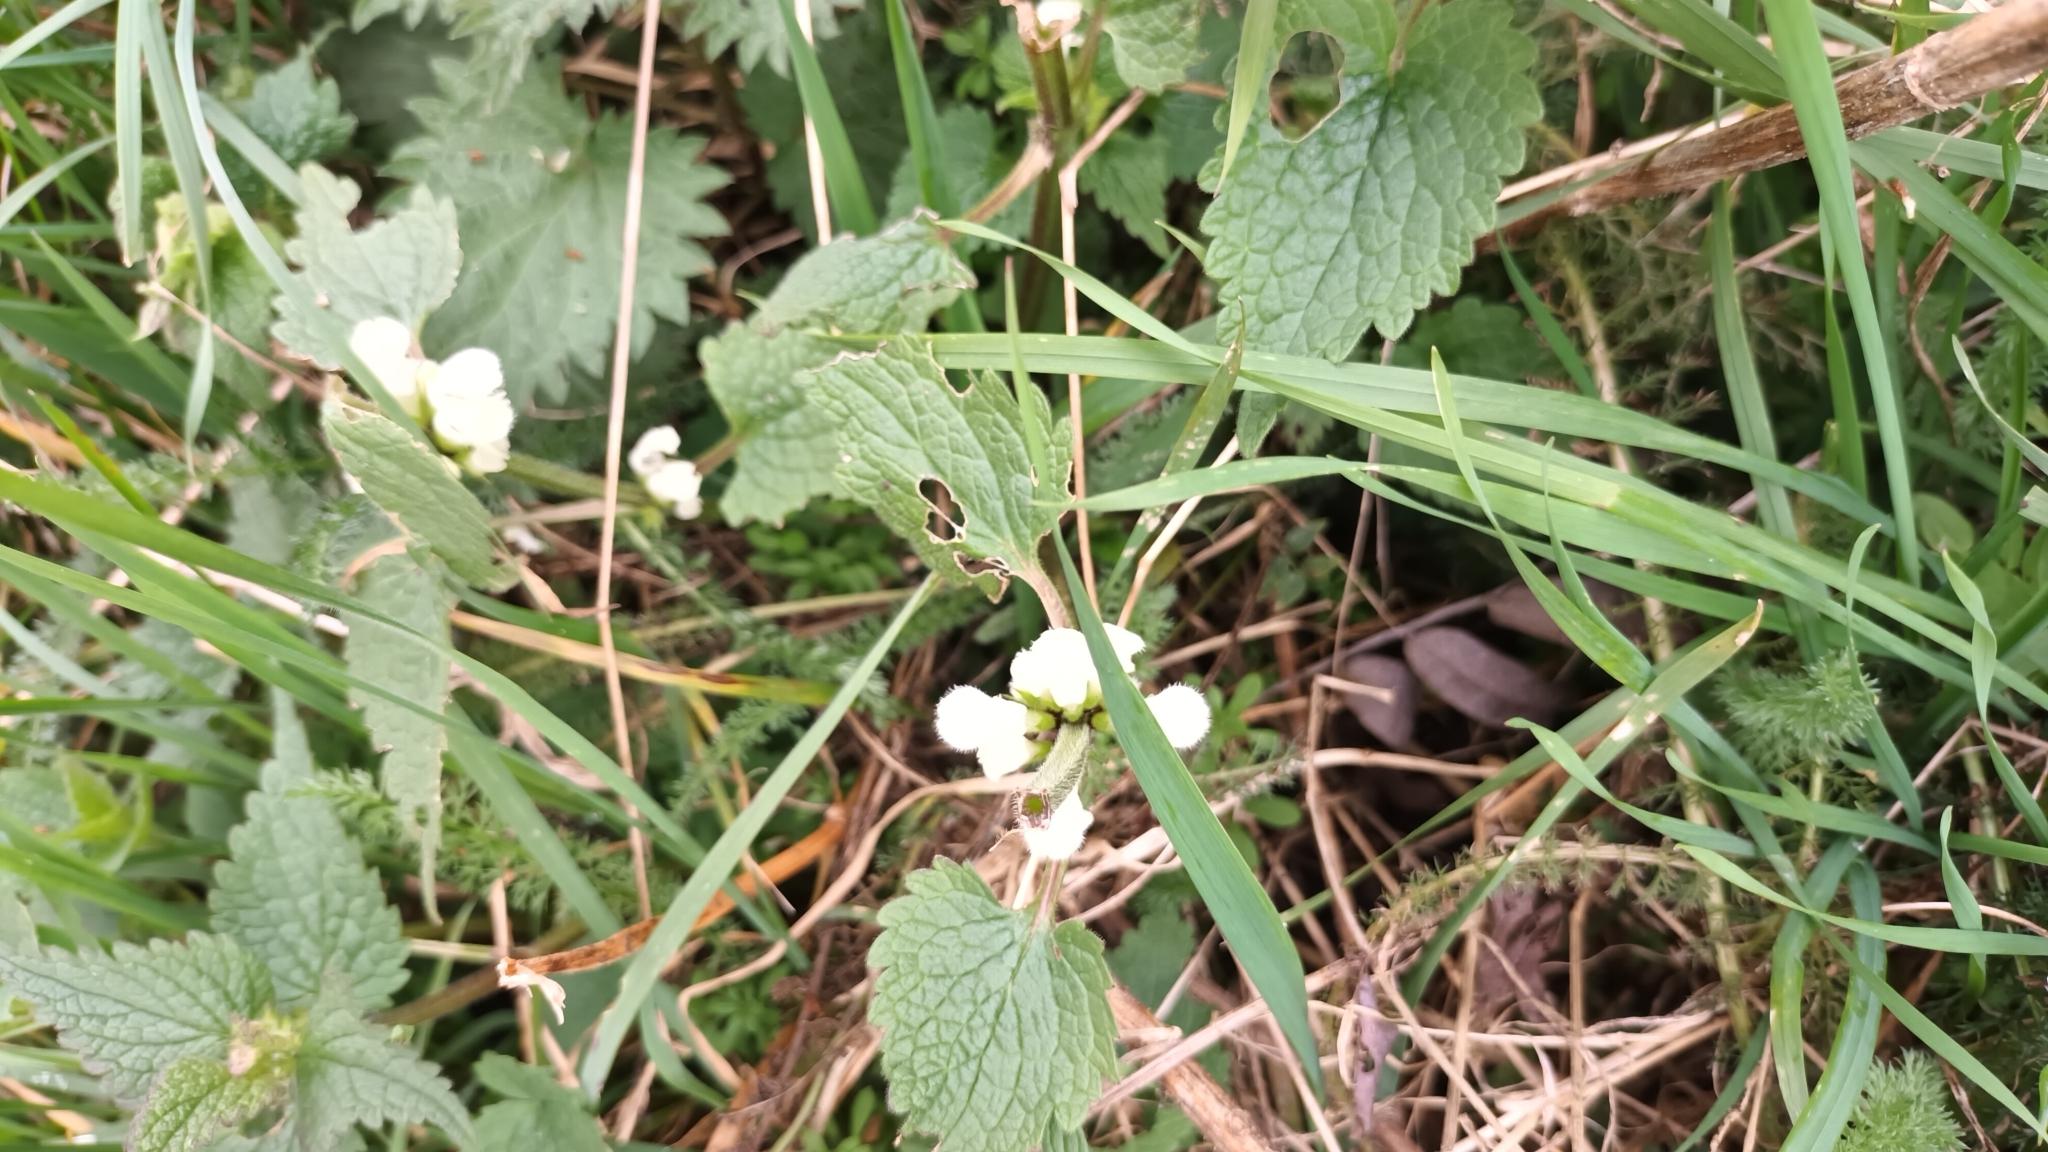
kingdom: Plantae
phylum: Tracheophyta
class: Magnoliopsida
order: Lamiales
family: Lamiaceae
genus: Lamium
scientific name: Lamium album
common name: White dead-nettle
